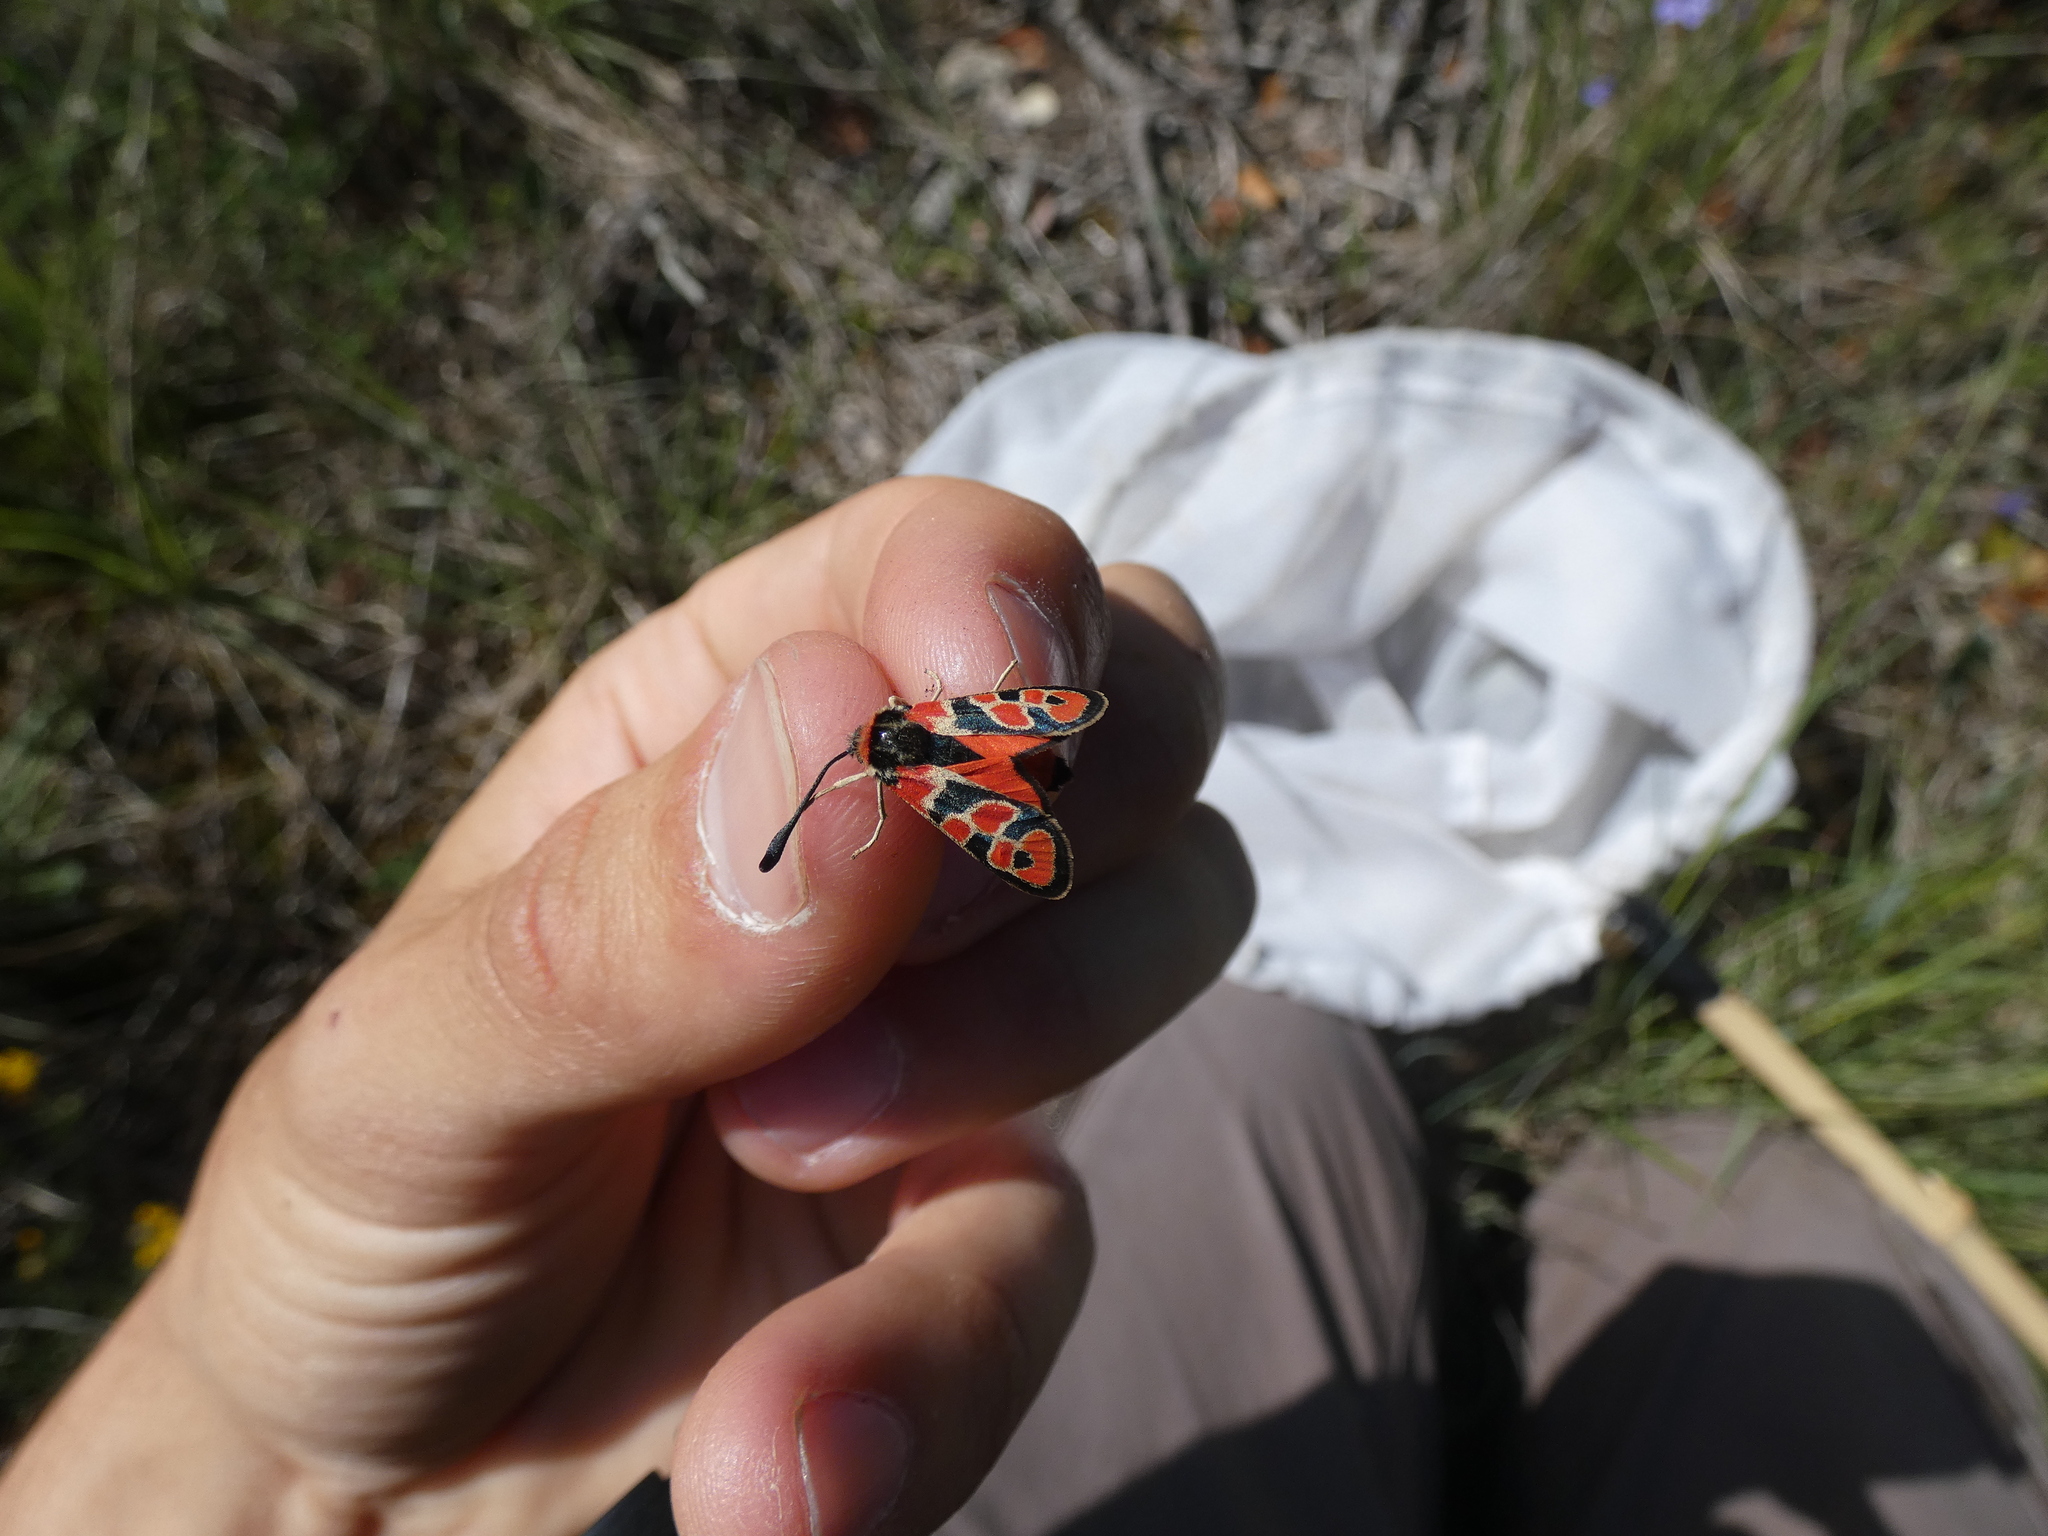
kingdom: Animalia
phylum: Arthropoda
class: Insecta
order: Lepidoptera
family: Zygaenidae
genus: Zygaena
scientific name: Zygaena fausta
